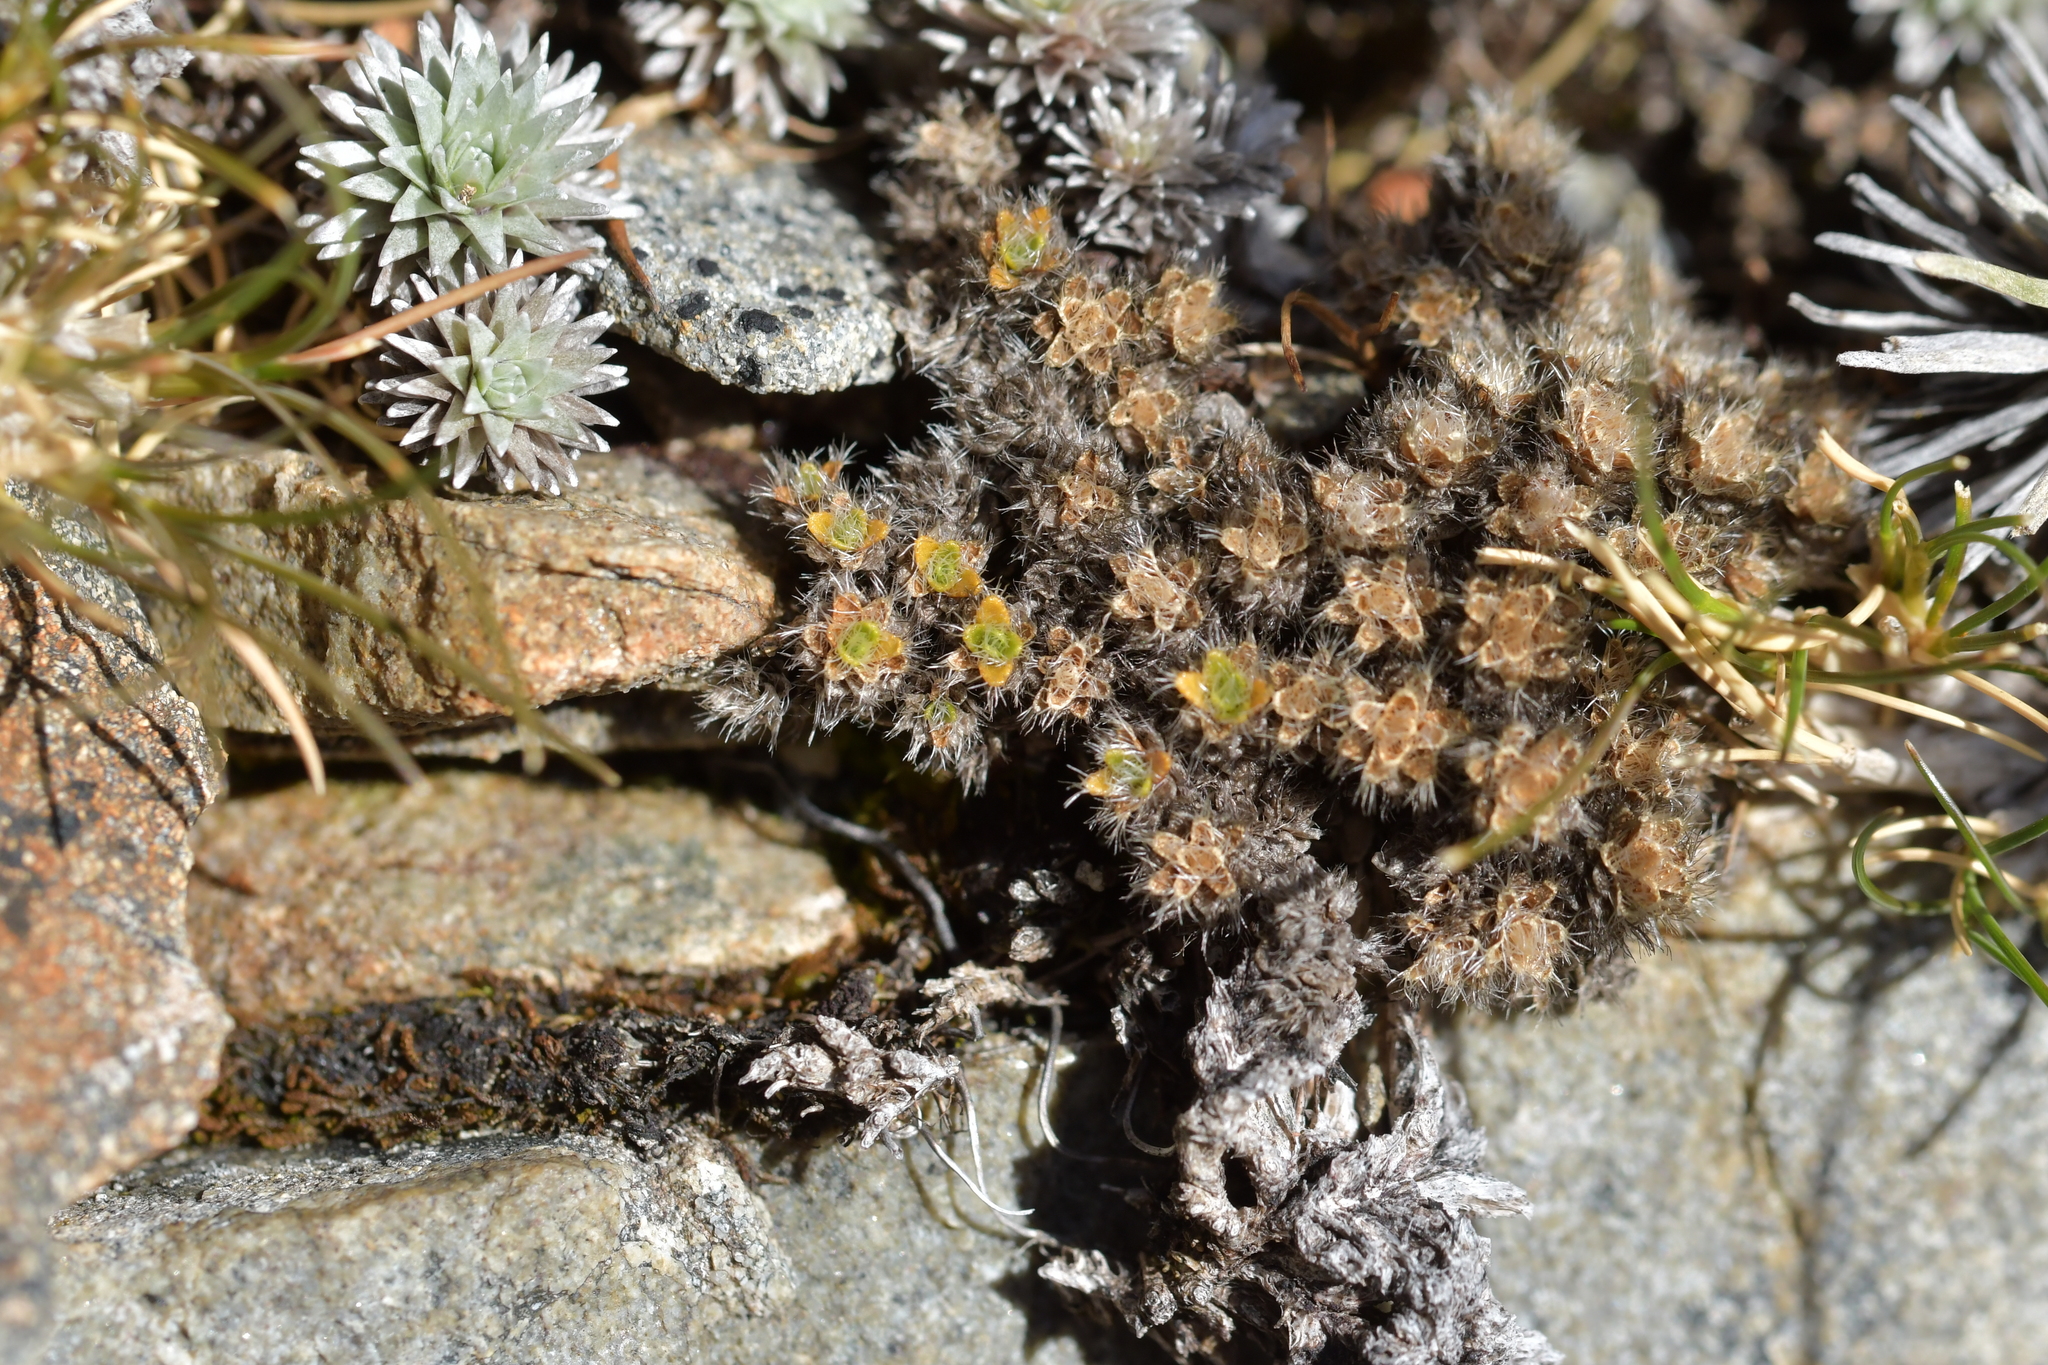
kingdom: Plantae
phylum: Tracheophyta
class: Magnoliopsida
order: Lamiales
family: Plantaginaceae
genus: Veronica
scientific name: Veronica pulvinaris
